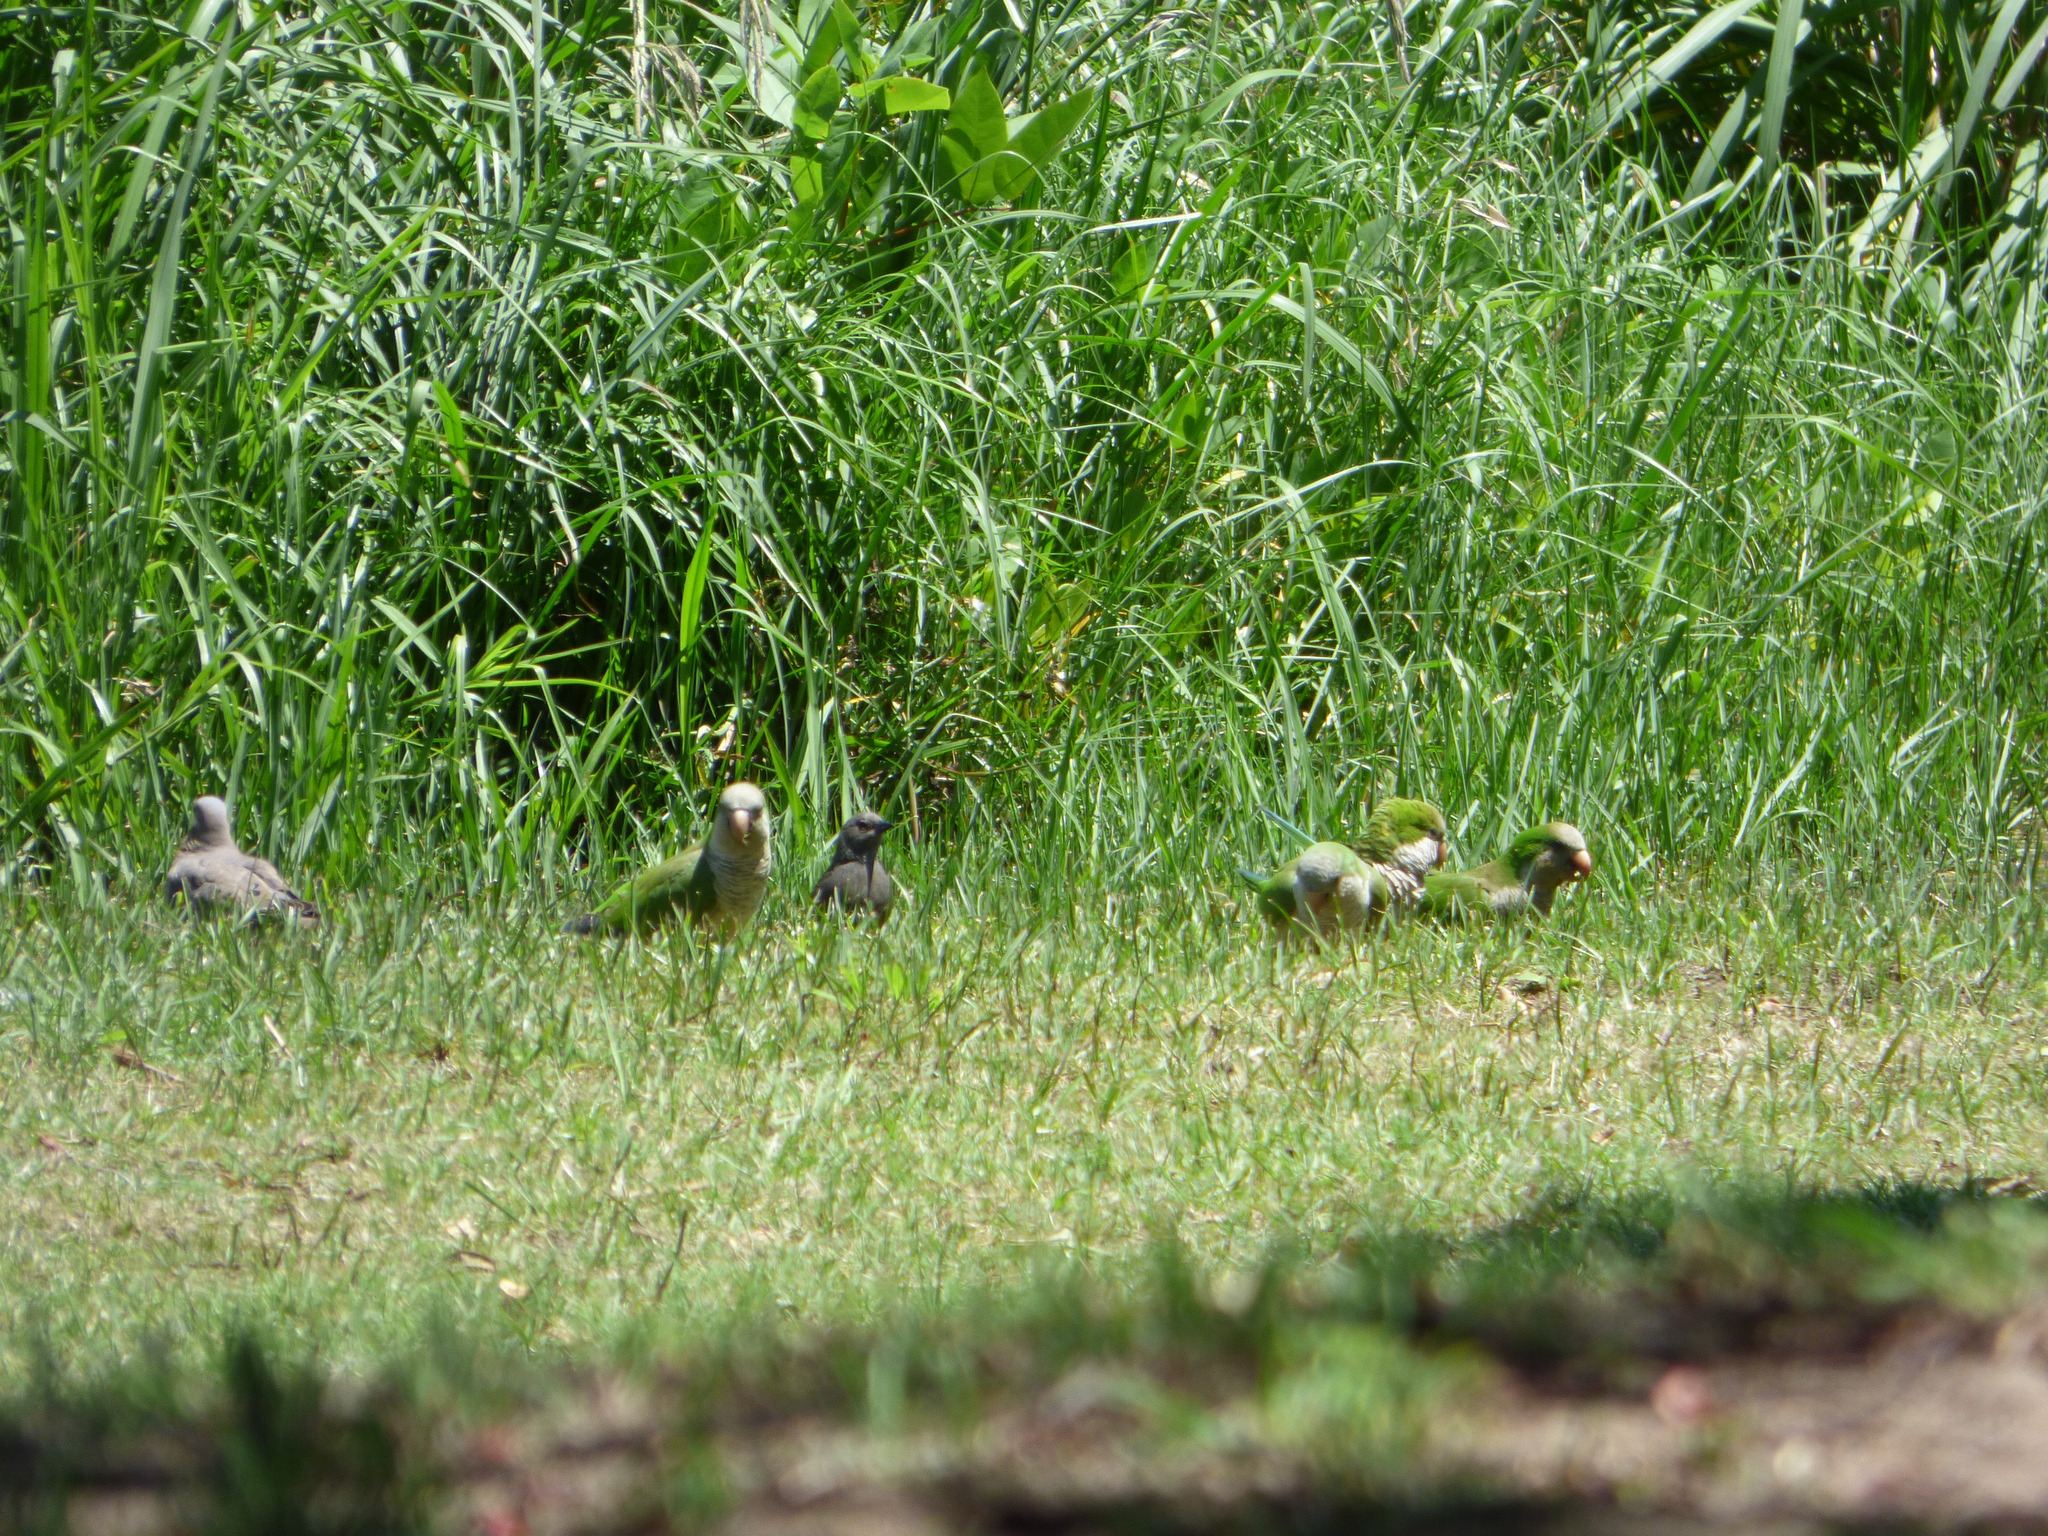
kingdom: Animalia
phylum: Chordata
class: Aves
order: Psittaciformes
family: Psittacidae
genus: Myiopsitta
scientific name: Myiopsitta monachus
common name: Monk parakeet
